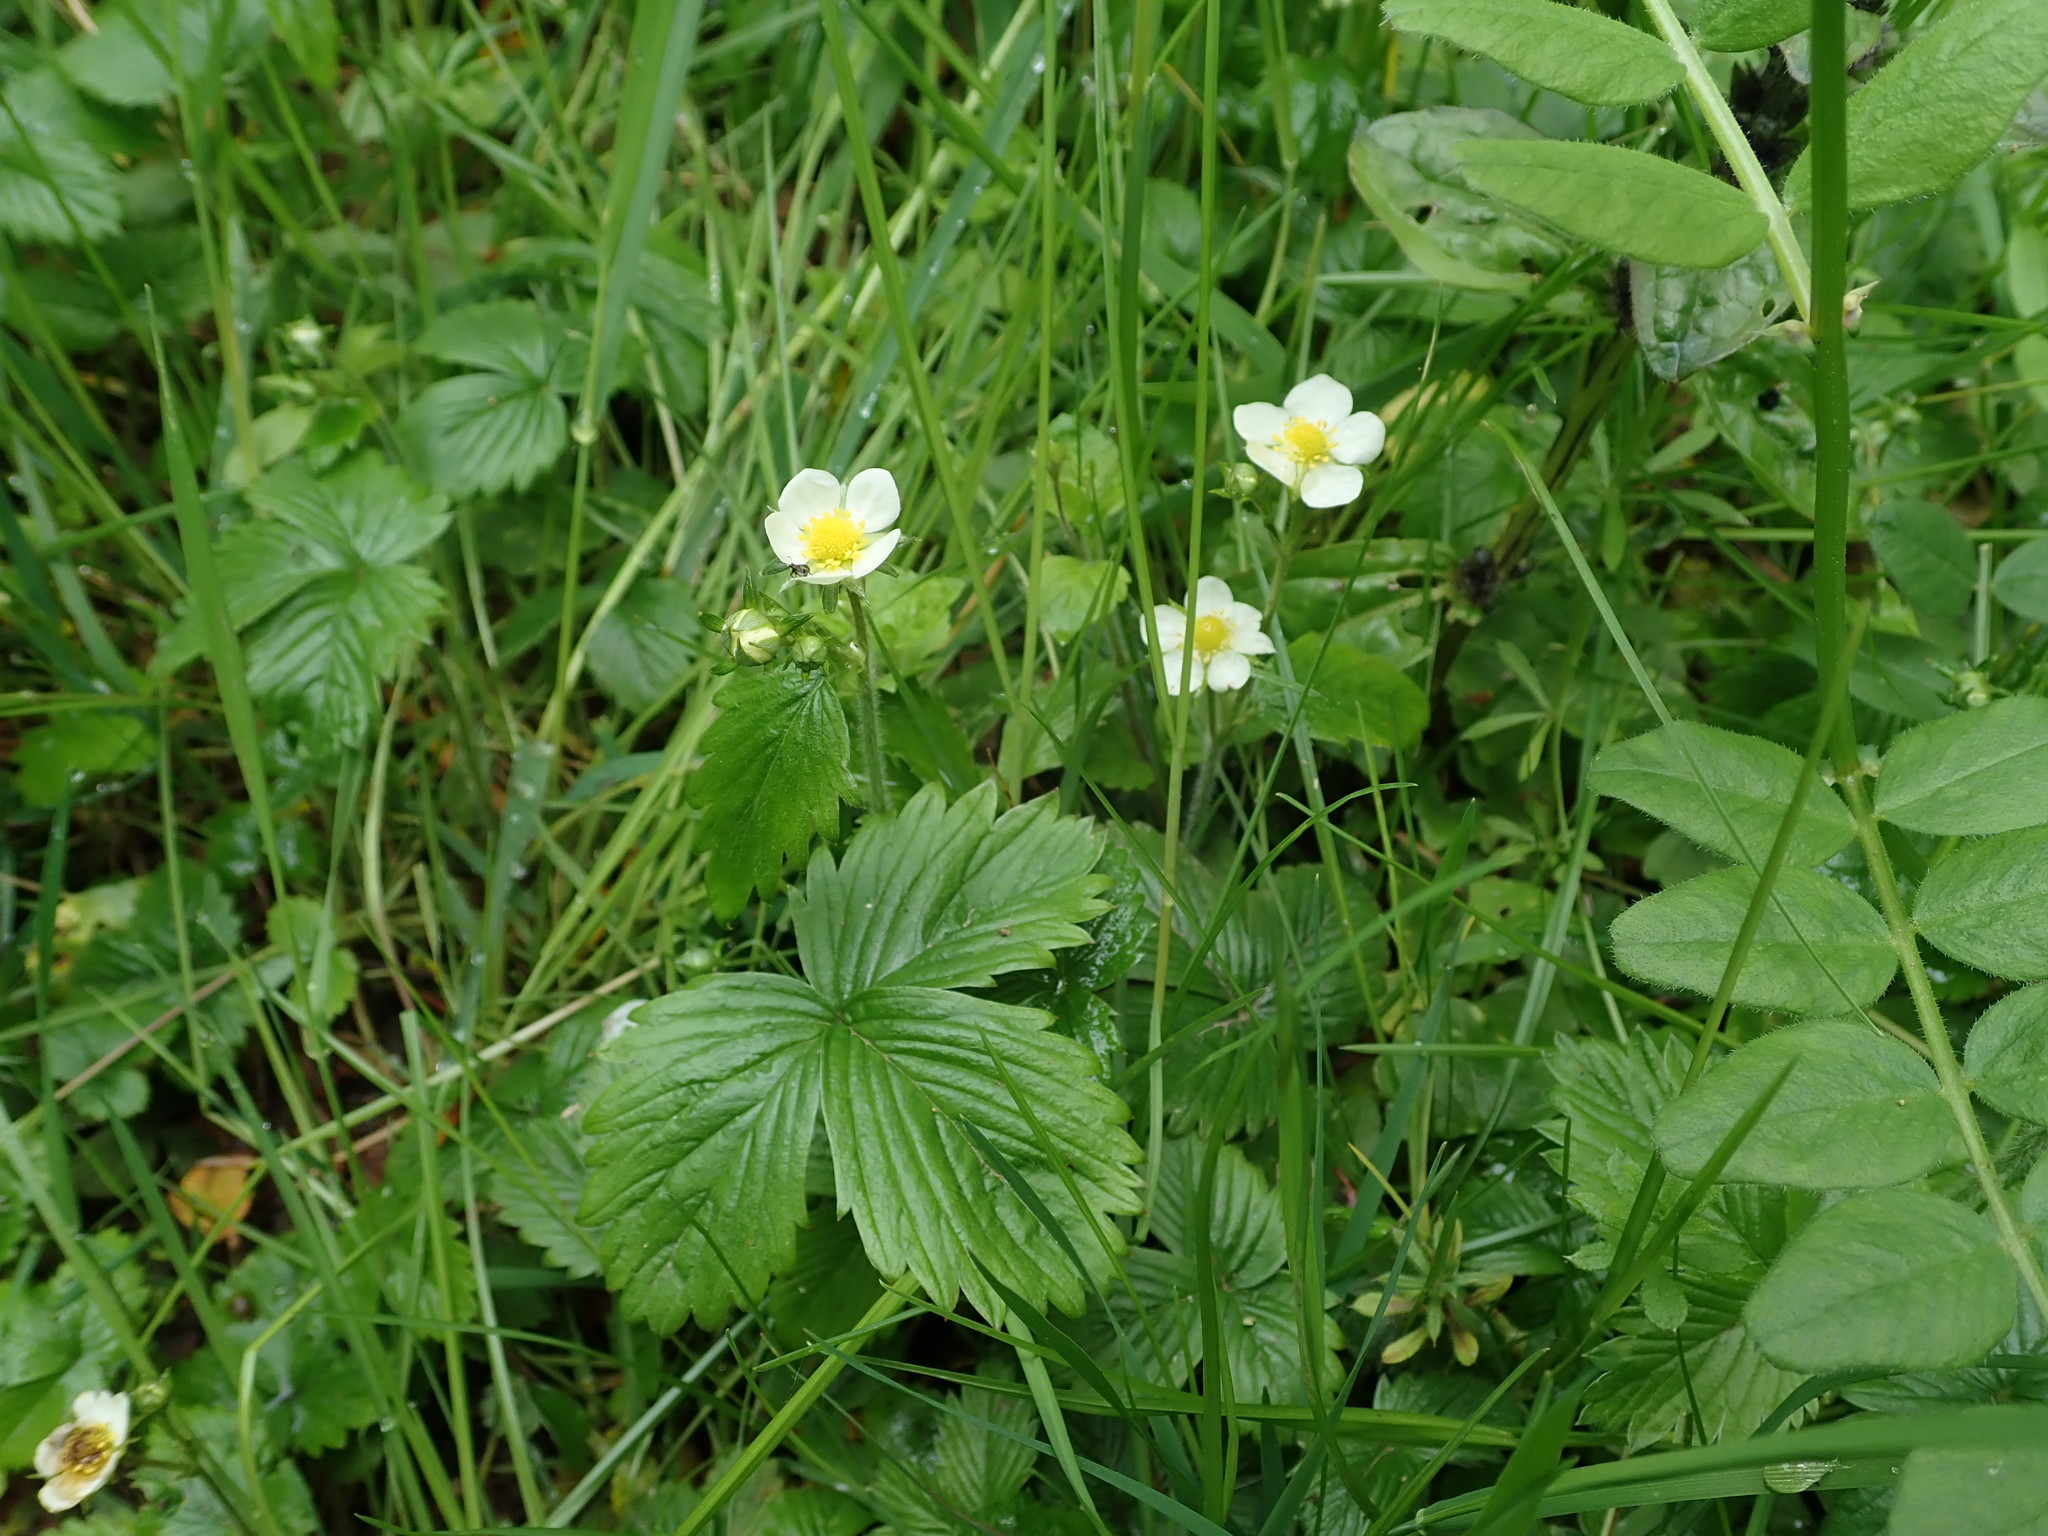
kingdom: Plantae
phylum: Tracheophyta
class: Magnoliopsida
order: Rosales
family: Rosaceae
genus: Fragaria
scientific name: Fragaria vesca
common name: Wild strawberry
